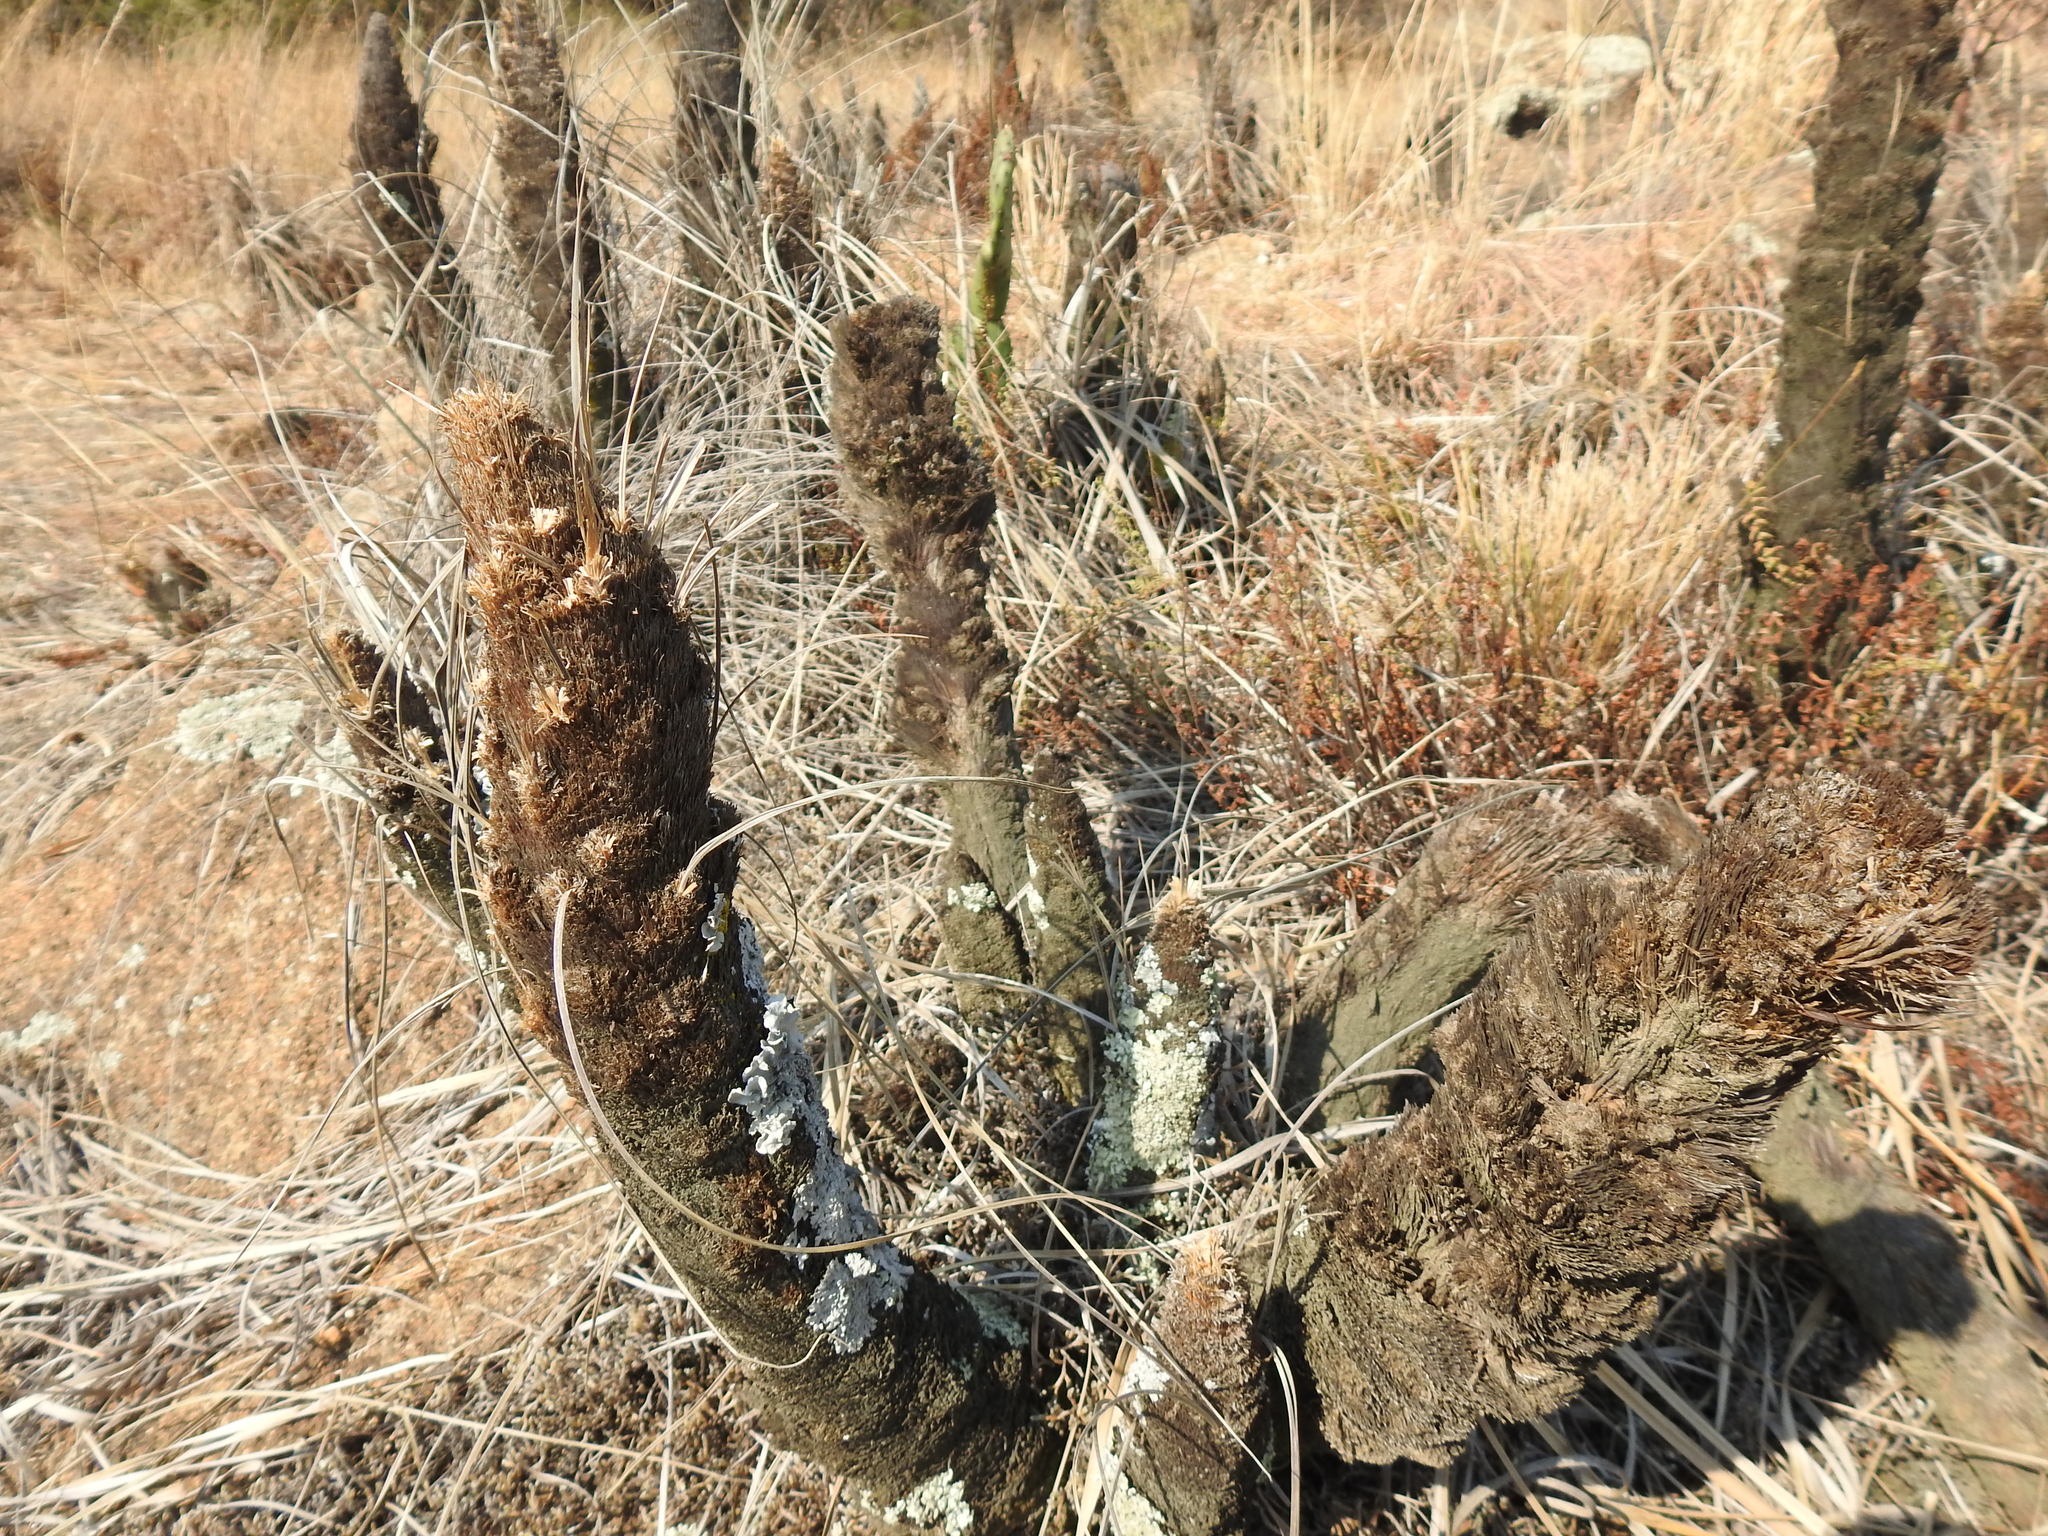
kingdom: Plantae
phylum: Tracheophyta
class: Liliopsida
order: Pandanales
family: Velloziaceae
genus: Xerophyta
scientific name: Xerophyta retinervis
